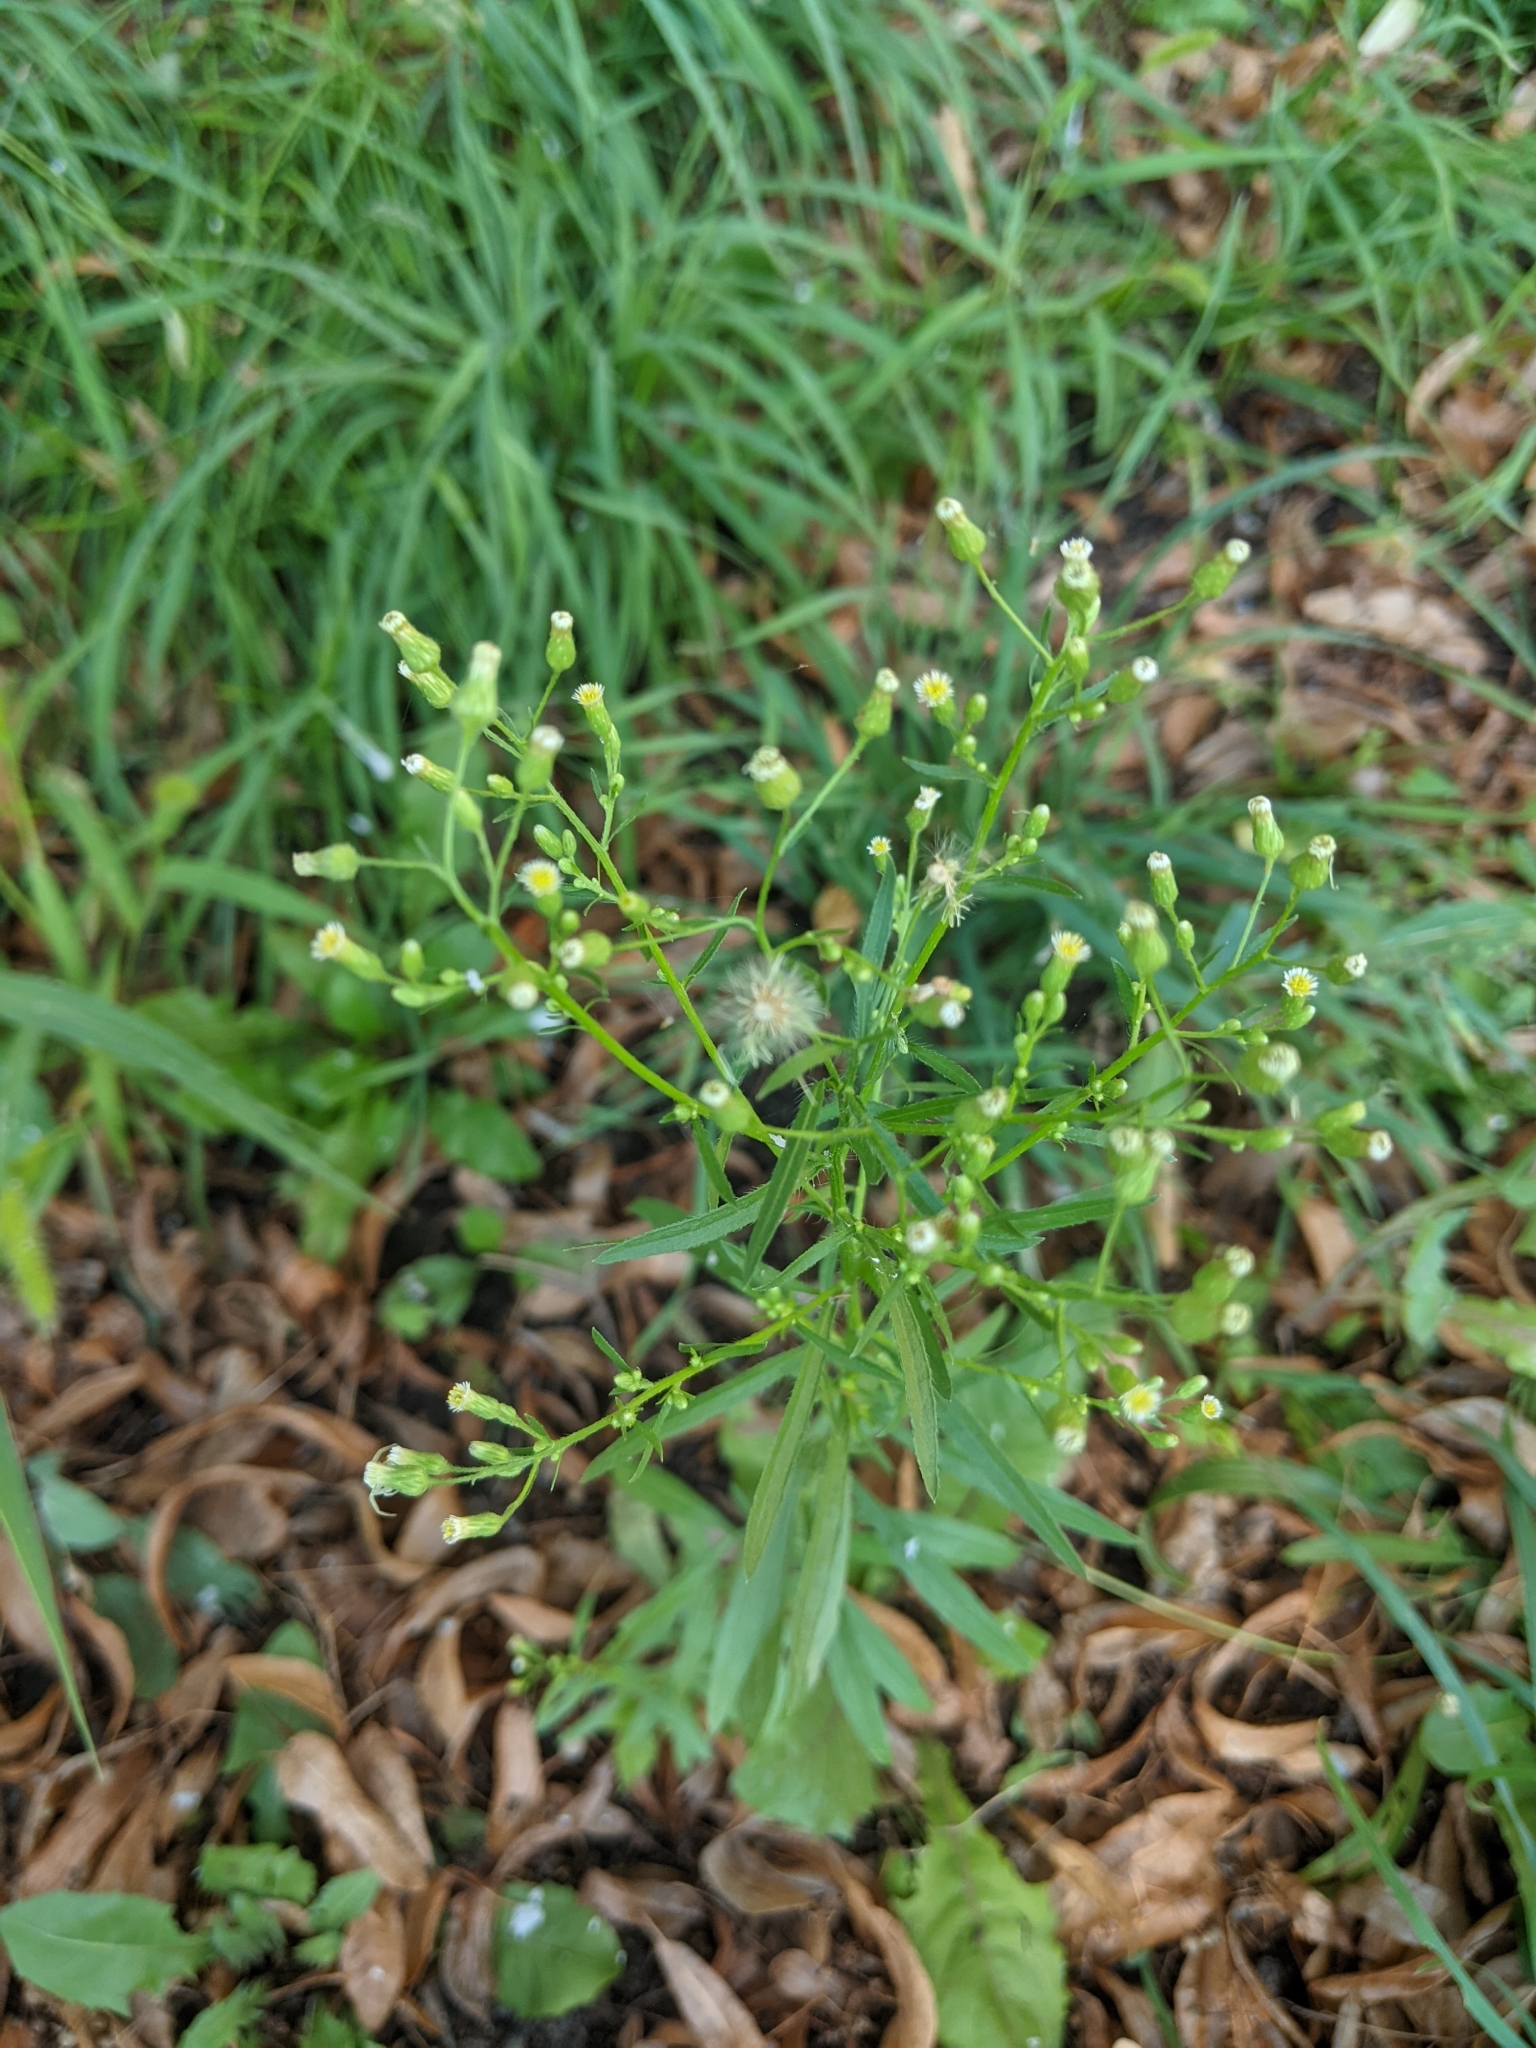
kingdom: Plantae
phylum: Tracheophyta
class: Magnoliopsida
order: Asterales
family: Asteraceae
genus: Erigeron
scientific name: Erigeron canadensis
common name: Canadian fleabane
